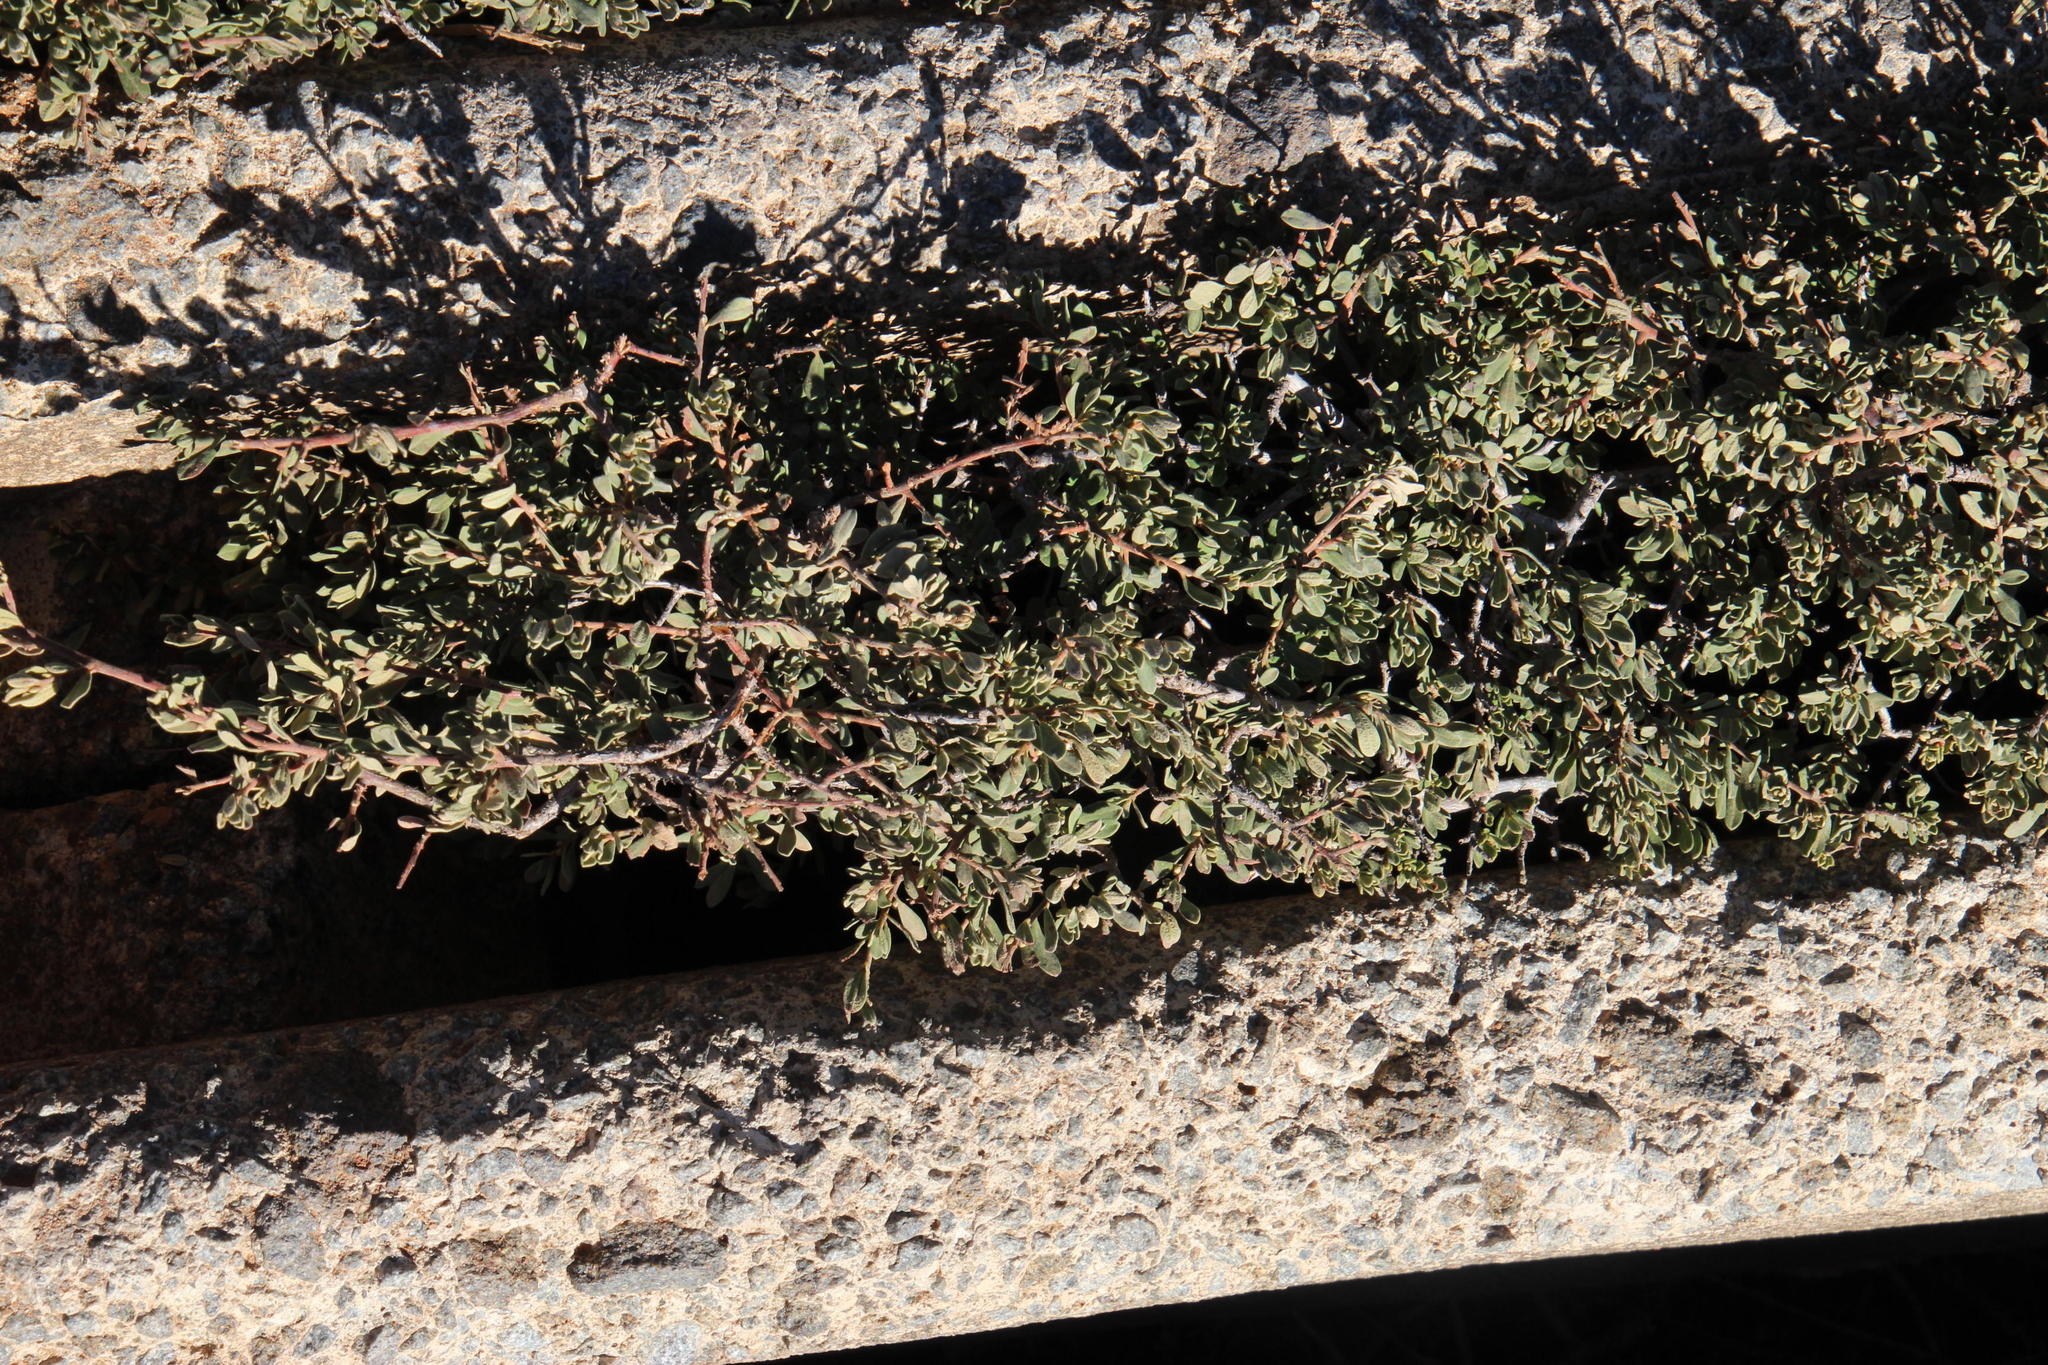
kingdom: Plantae
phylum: Tracheophyta
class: Magnoliopsida
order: Ericales
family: Ebenaceae
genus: Diospyros
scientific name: Diospyros pubescens
